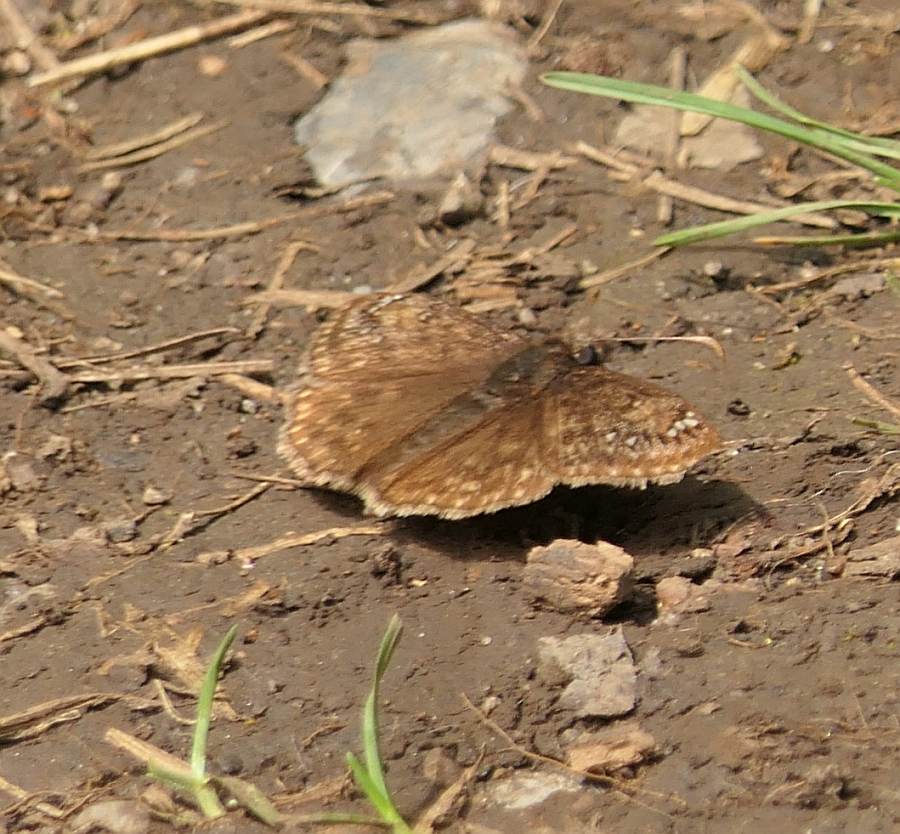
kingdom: Animalia
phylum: Arthropoda
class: Insecta
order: Lepidoptera
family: Hesperiidae
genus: Erynnis
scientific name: Erynnis juvenalis
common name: Juvenal's duskywing
